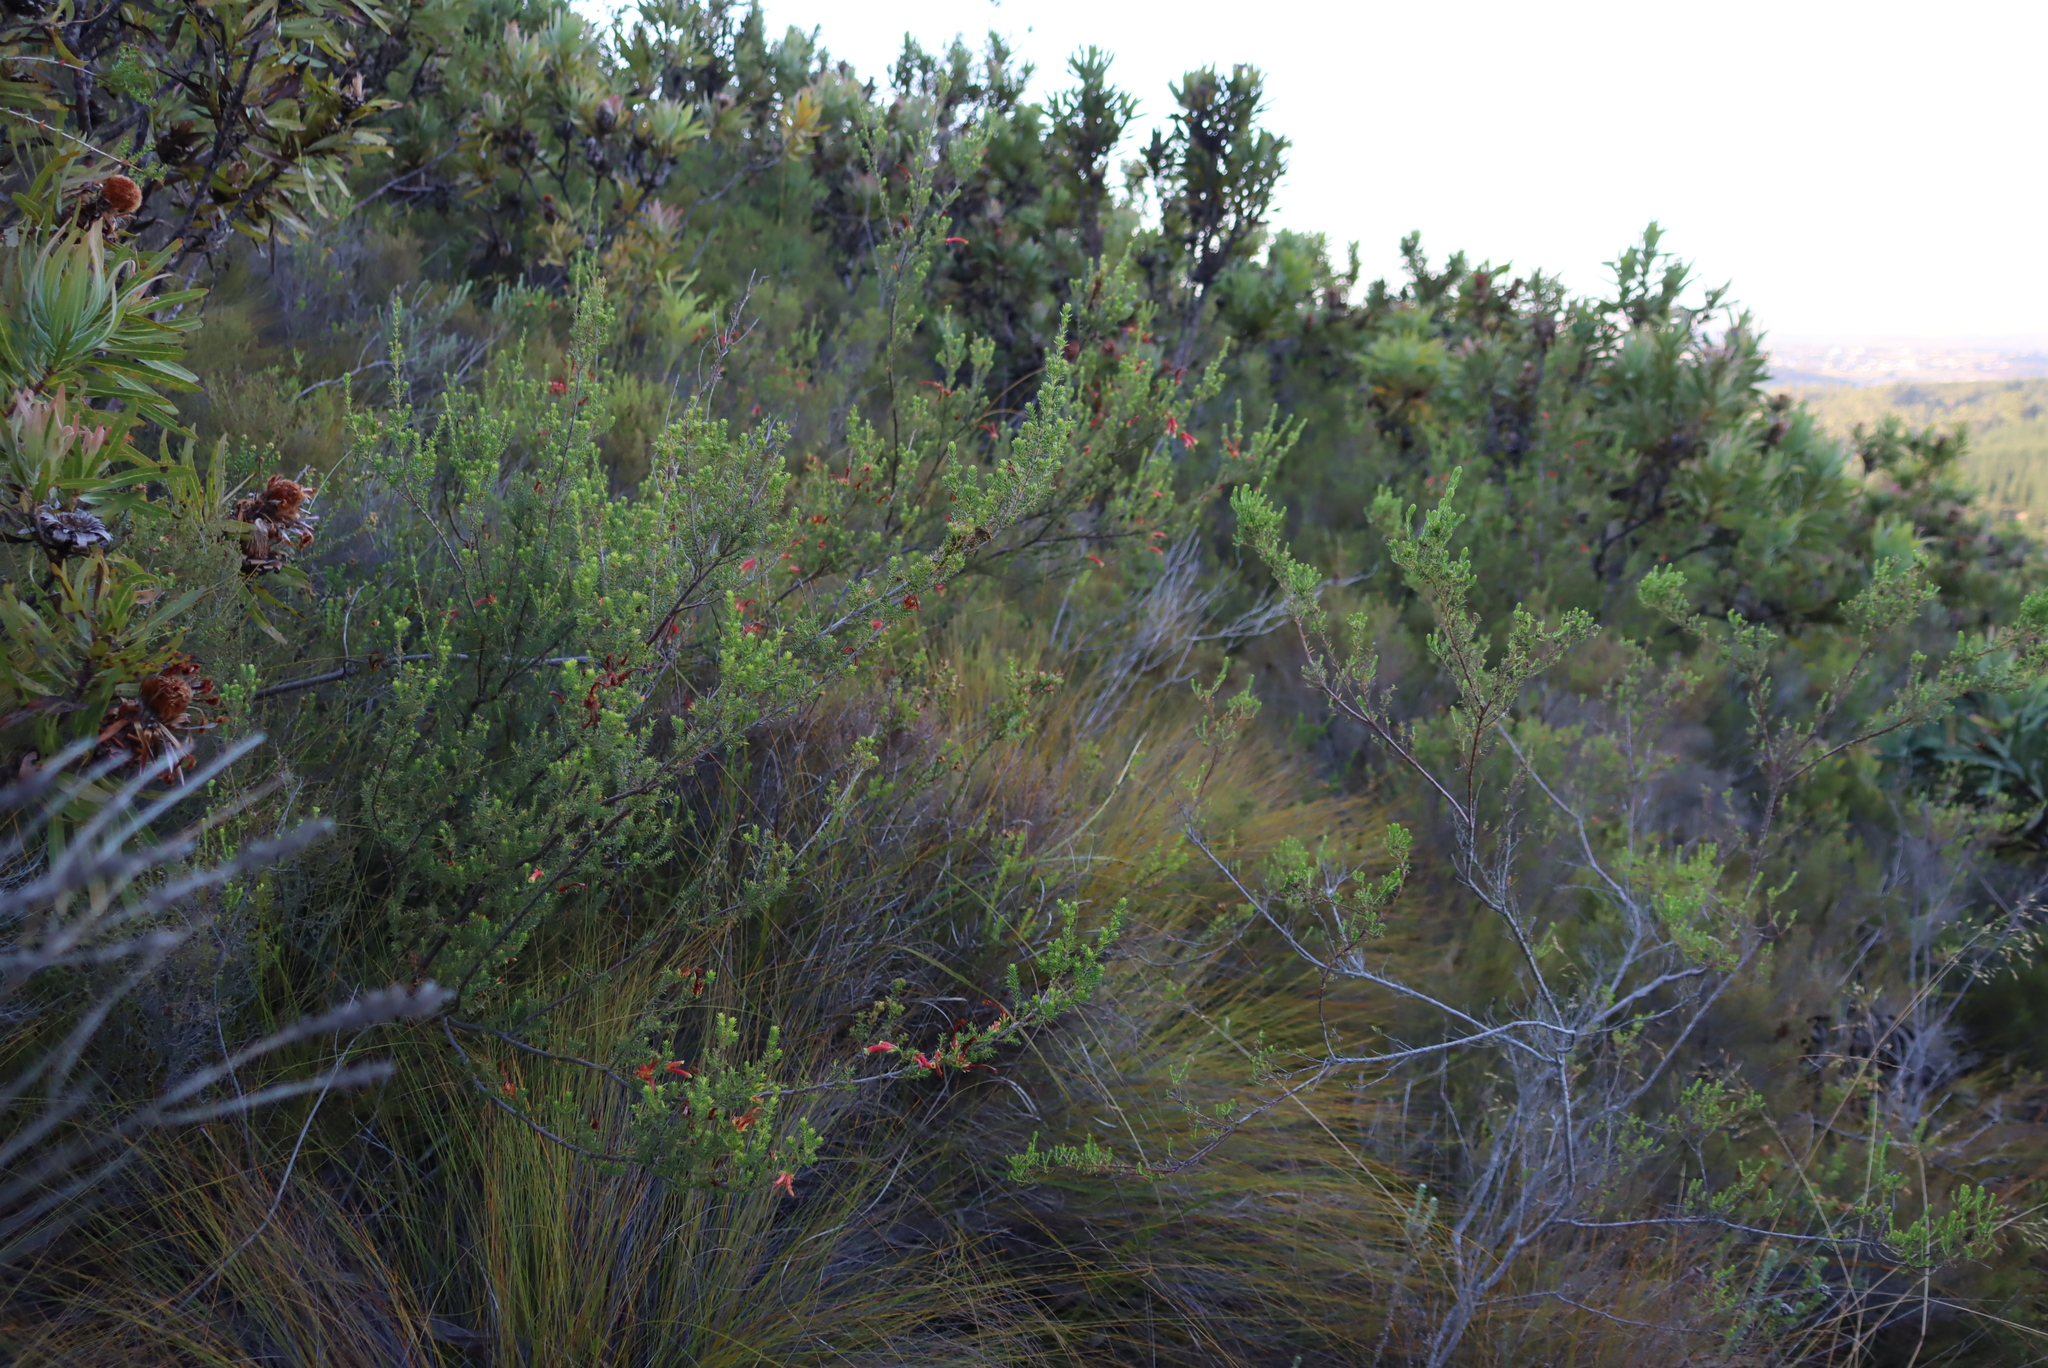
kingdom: Plantae
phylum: Tracheophyta
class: Magnoliopsida
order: Ericales
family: Ericaceae
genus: Erica
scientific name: Erica discolor
